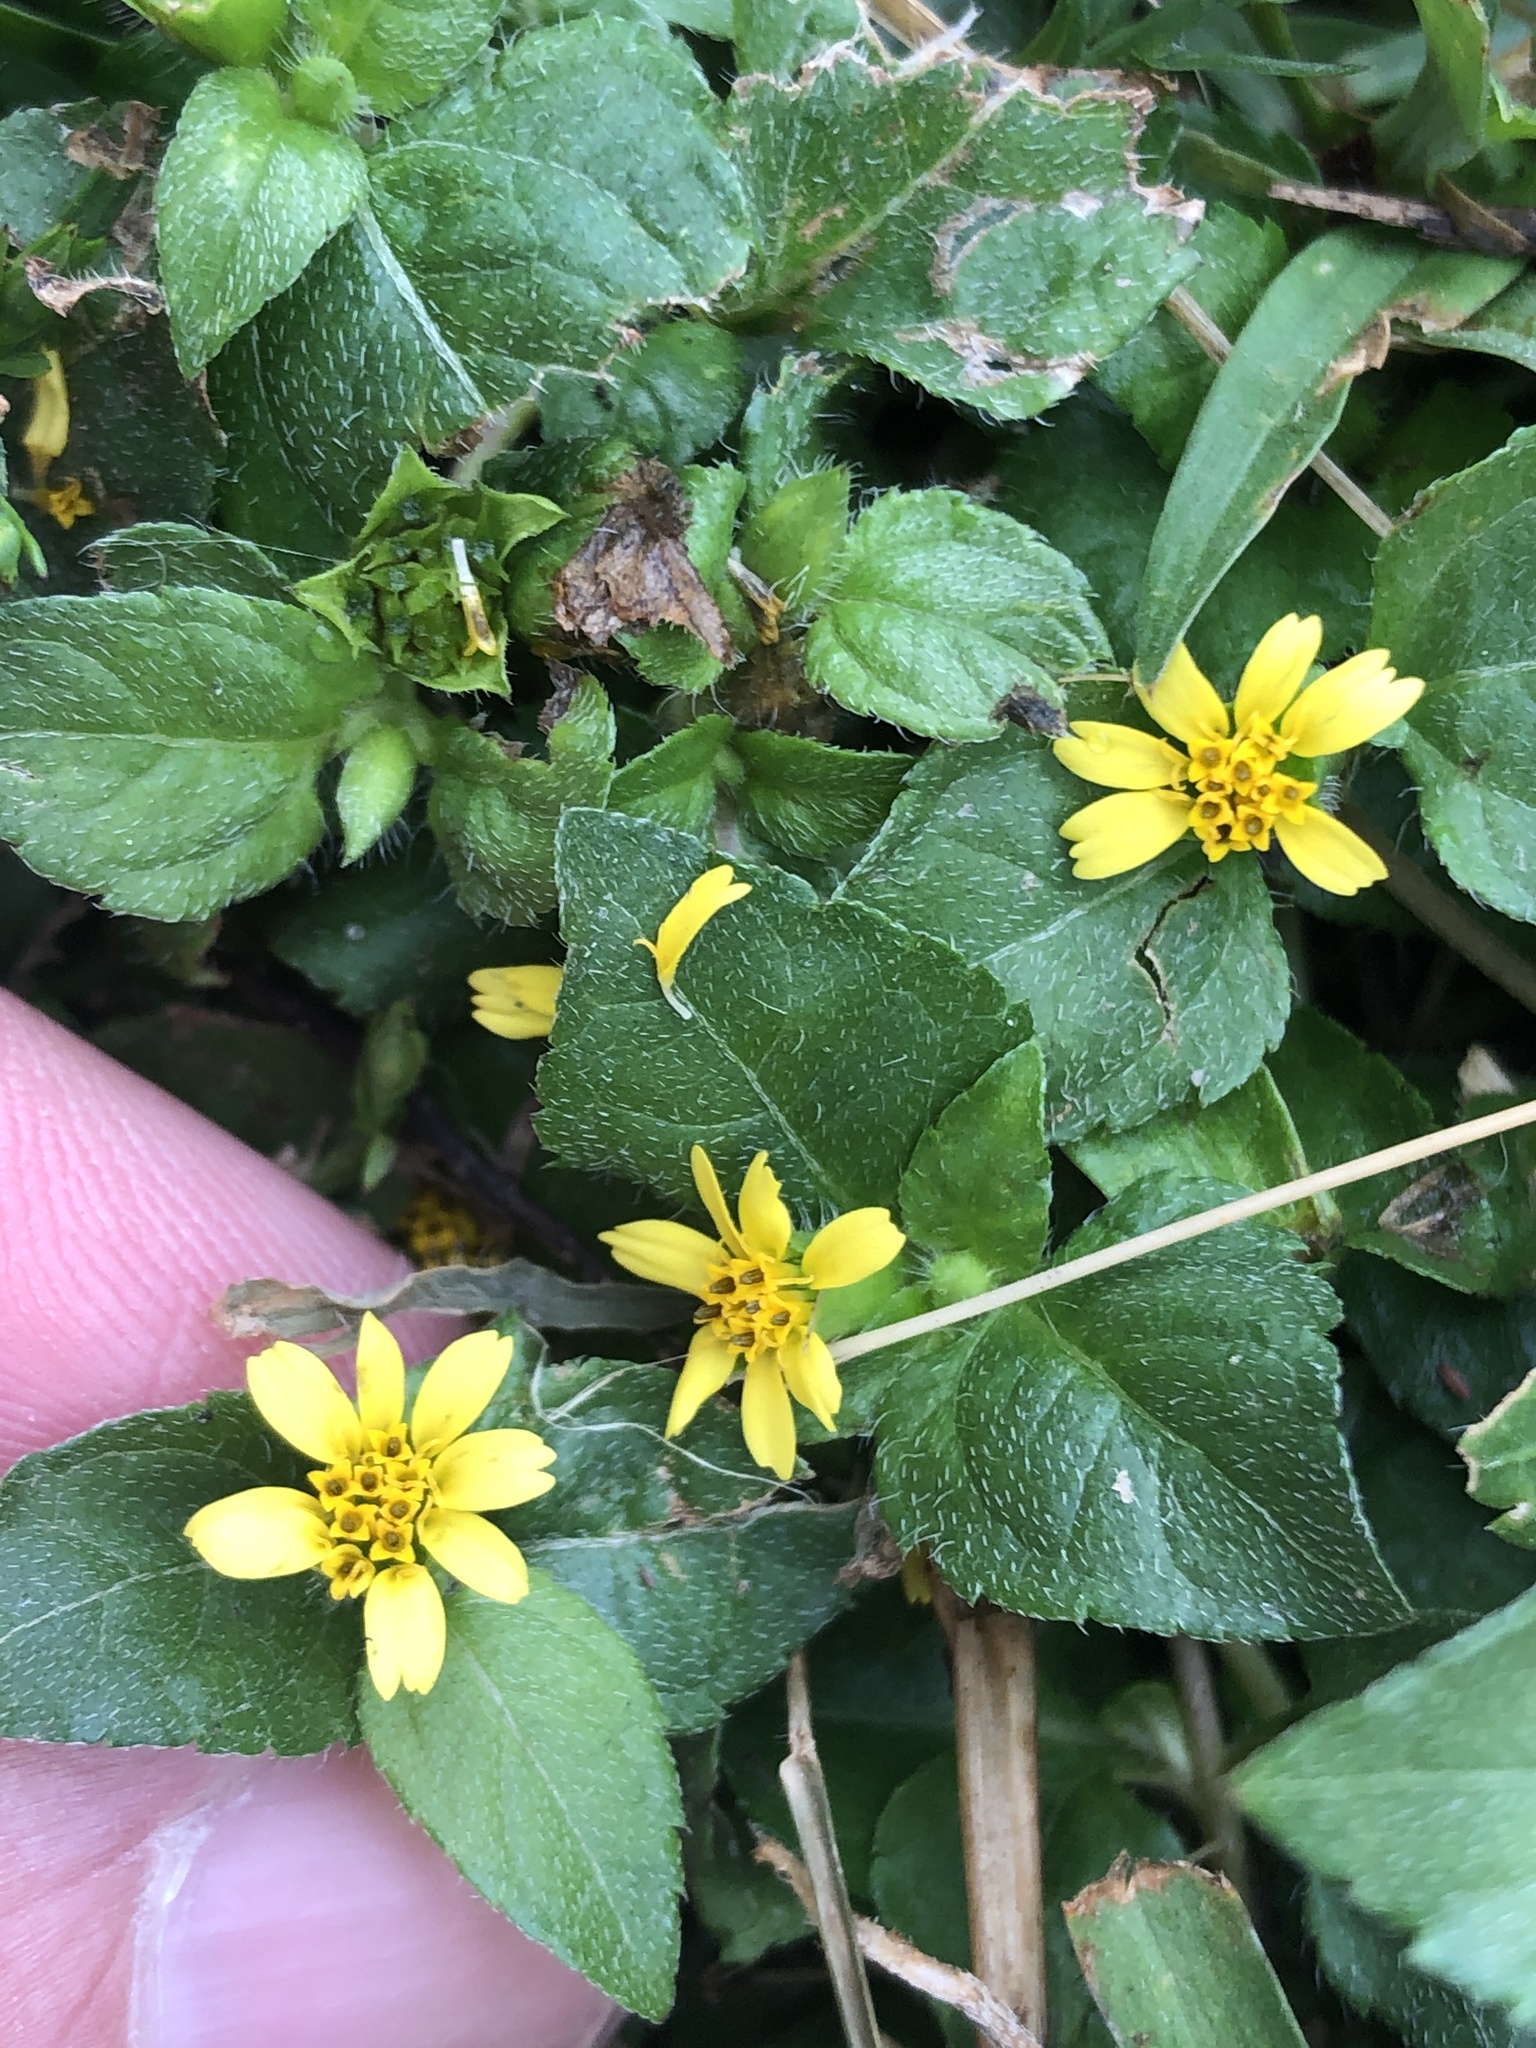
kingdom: Plantae
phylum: Tracheophyta
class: Magnoliopsida
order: Asterales
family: Asteraceae
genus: Calyptocarpus
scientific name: Calyptocarpus vialis
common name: Straggler daisy
